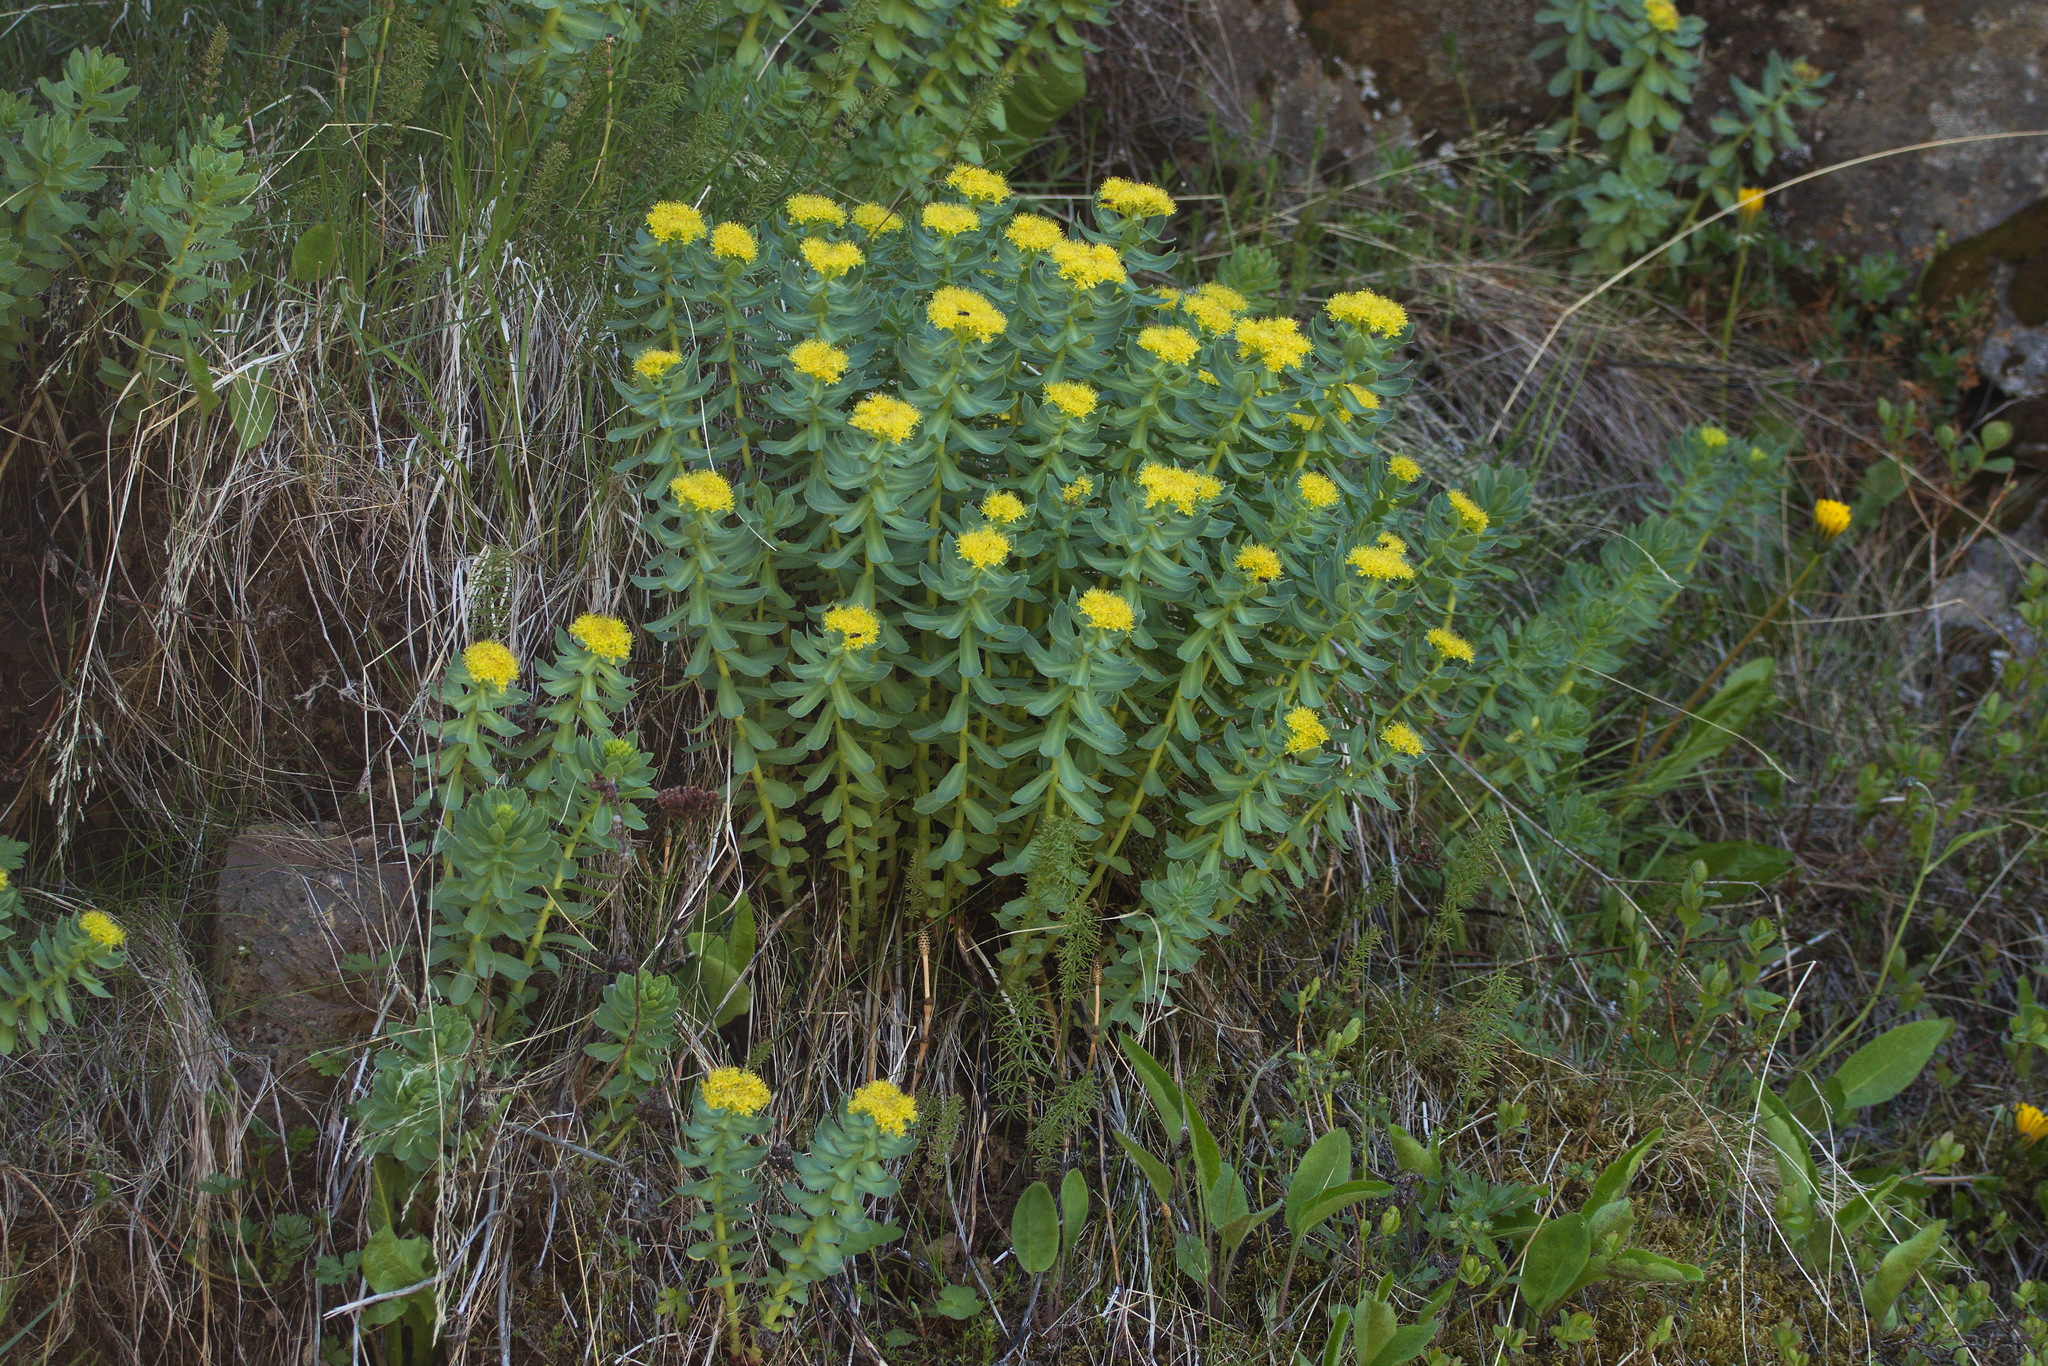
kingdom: Plantae
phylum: Tracheophyta
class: Magnoliopsida
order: Saxifragales
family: Crassulaceae
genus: Rhodiola
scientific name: Rhodiola rosea
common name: Roseroot
